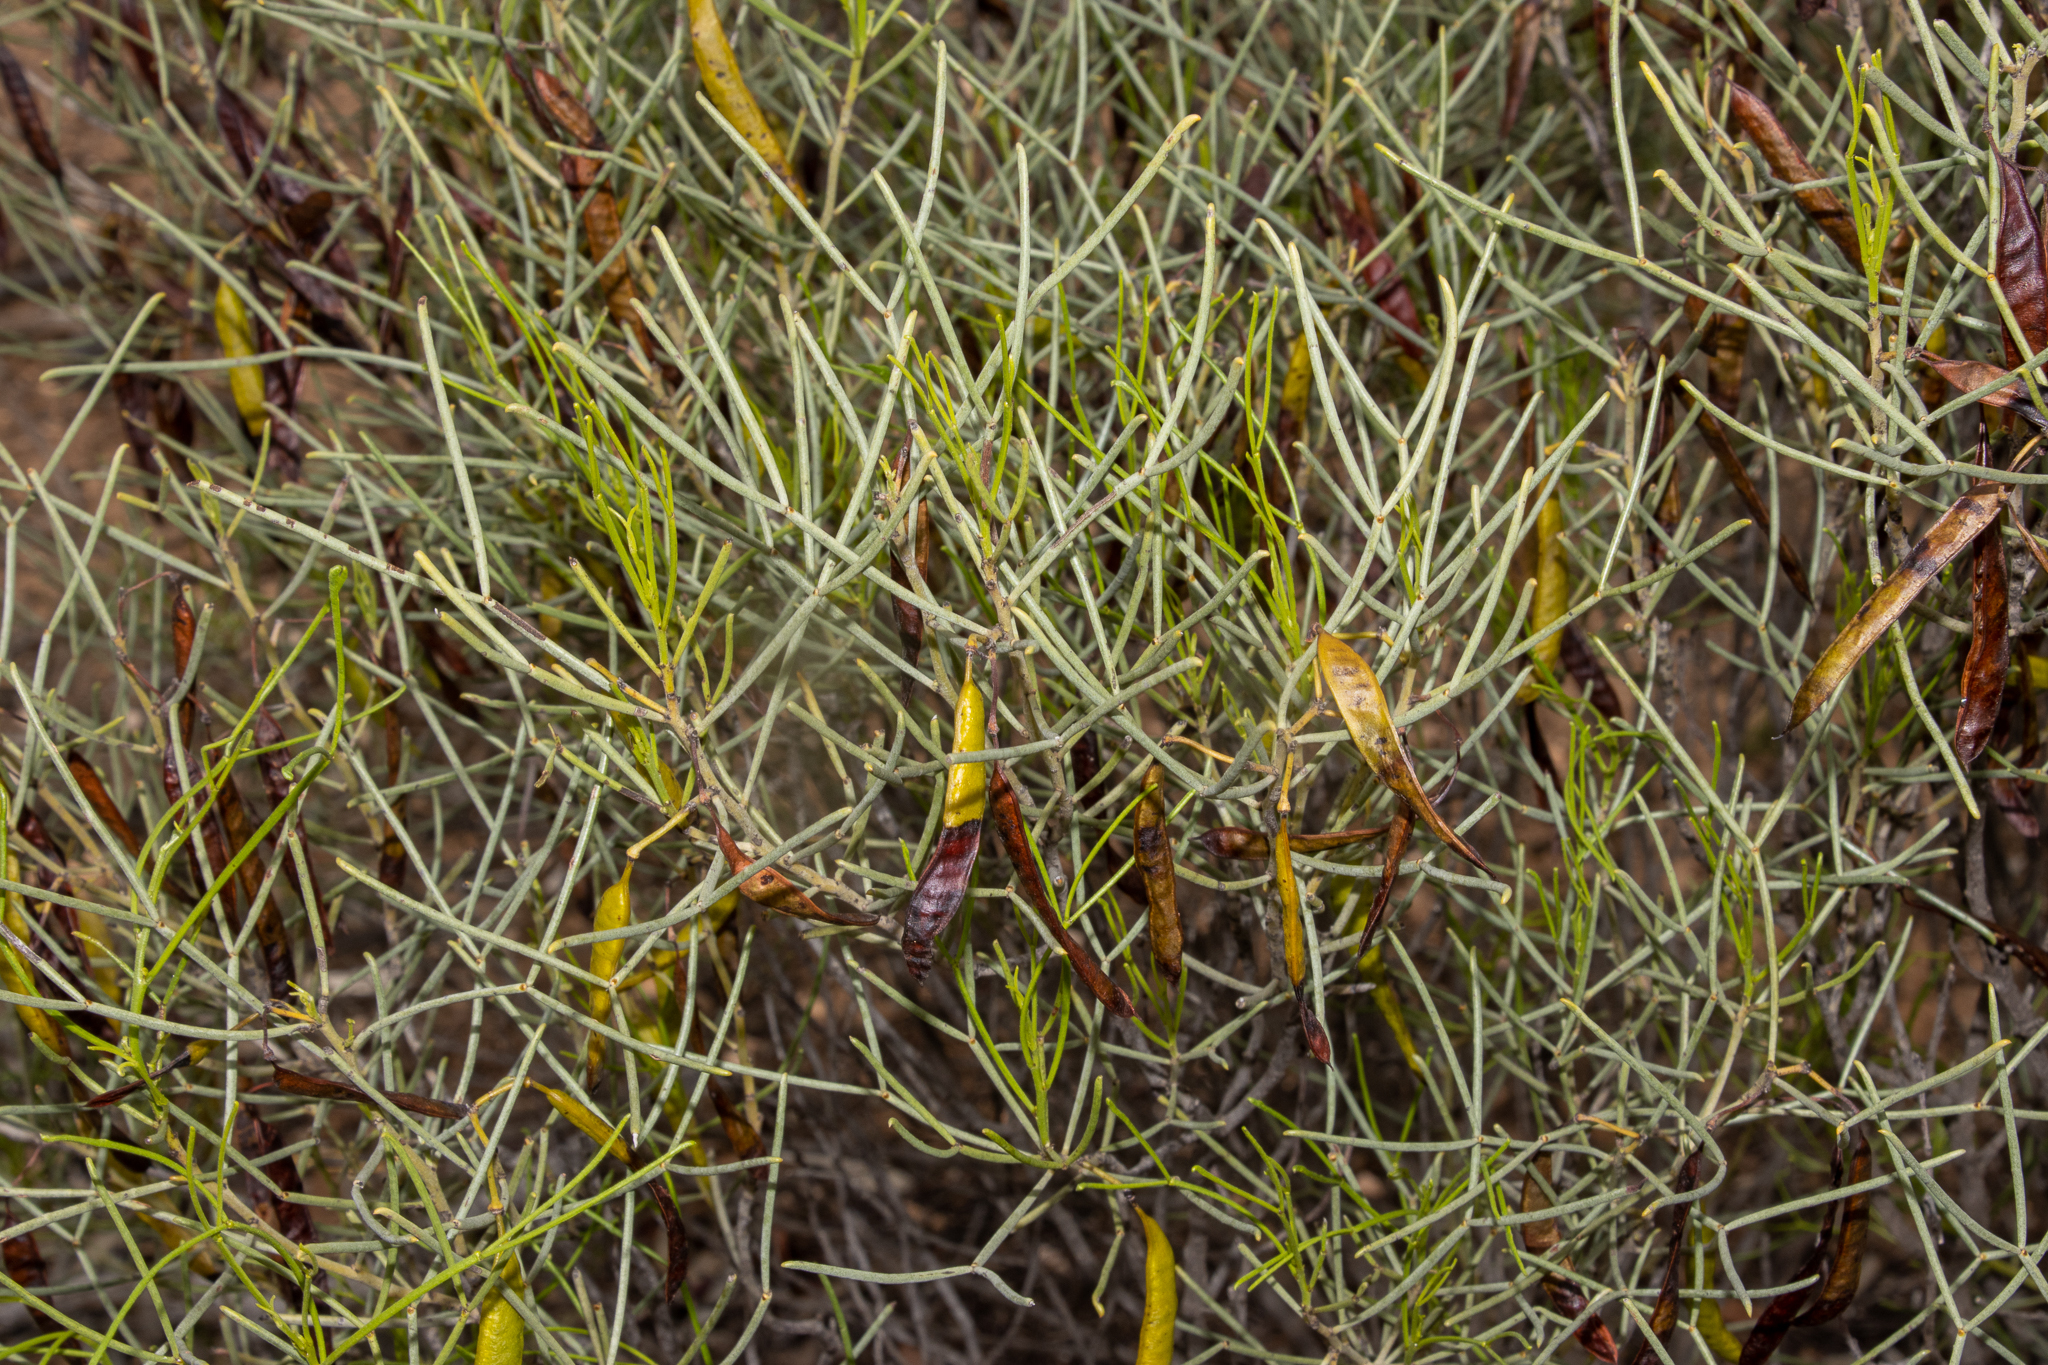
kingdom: Plantae
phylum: Tracheophyta
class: Magnoliopsida
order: Fabales
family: Fabaceae
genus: Senna
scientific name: Senna artemisioides
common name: Burnt-leaved acacia
